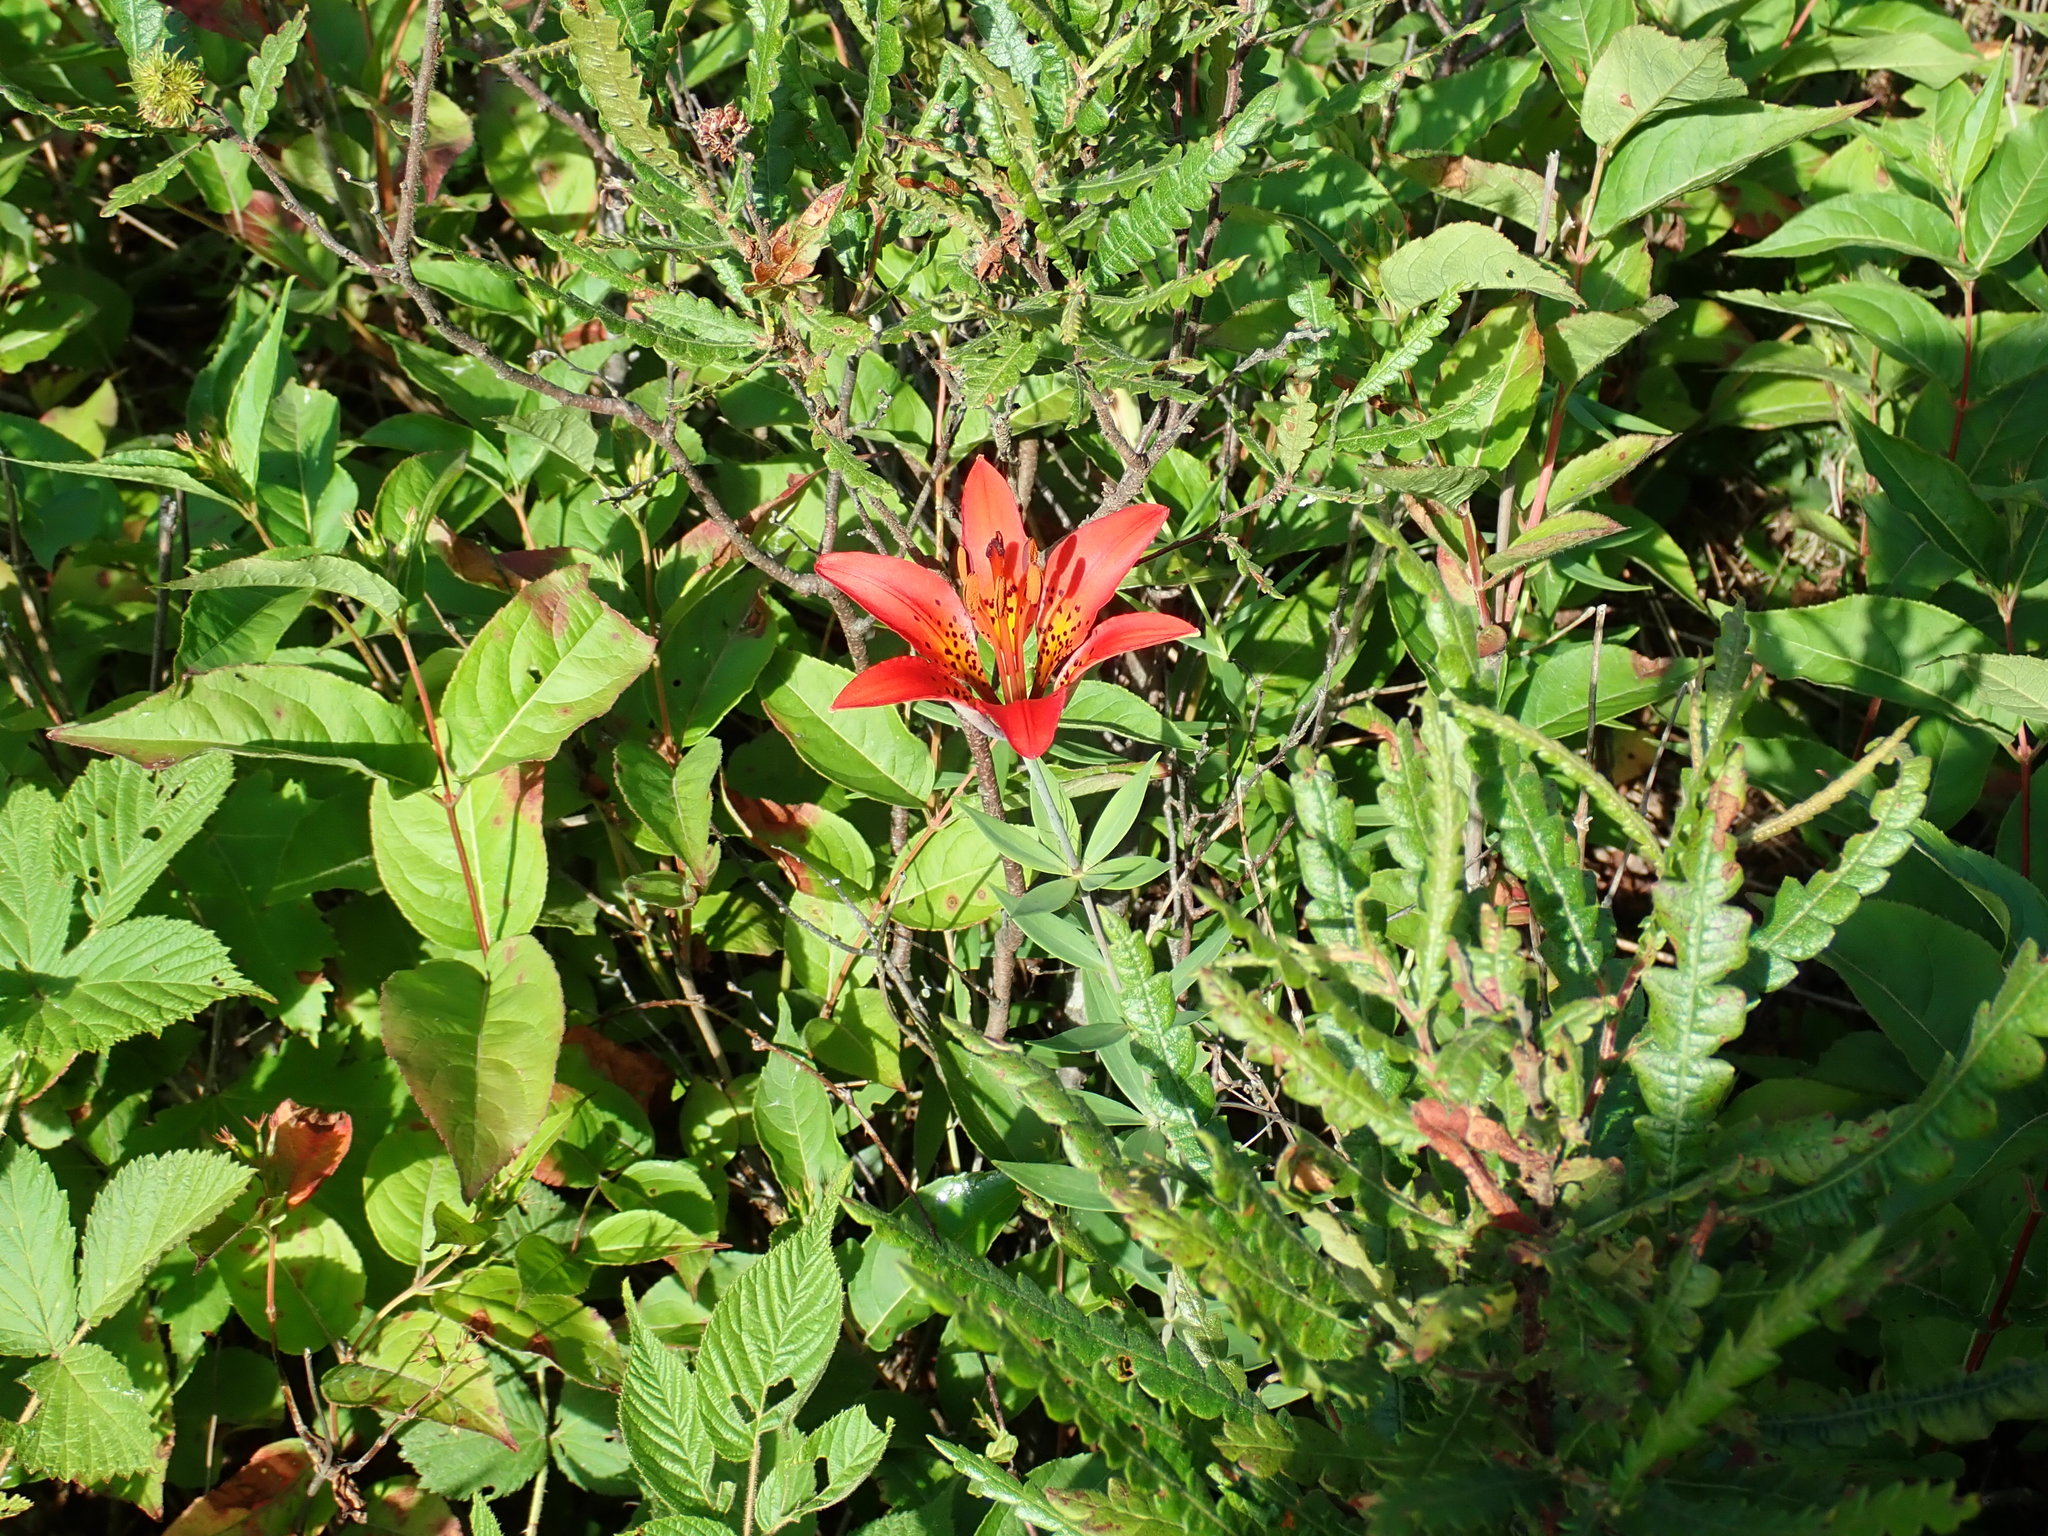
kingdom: Plantae
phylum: Tracheophyta
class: Liliopsida
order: Liliales
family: Liliaceae
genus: Lilium
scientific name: Lilium philadelphicum
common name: Red lily
